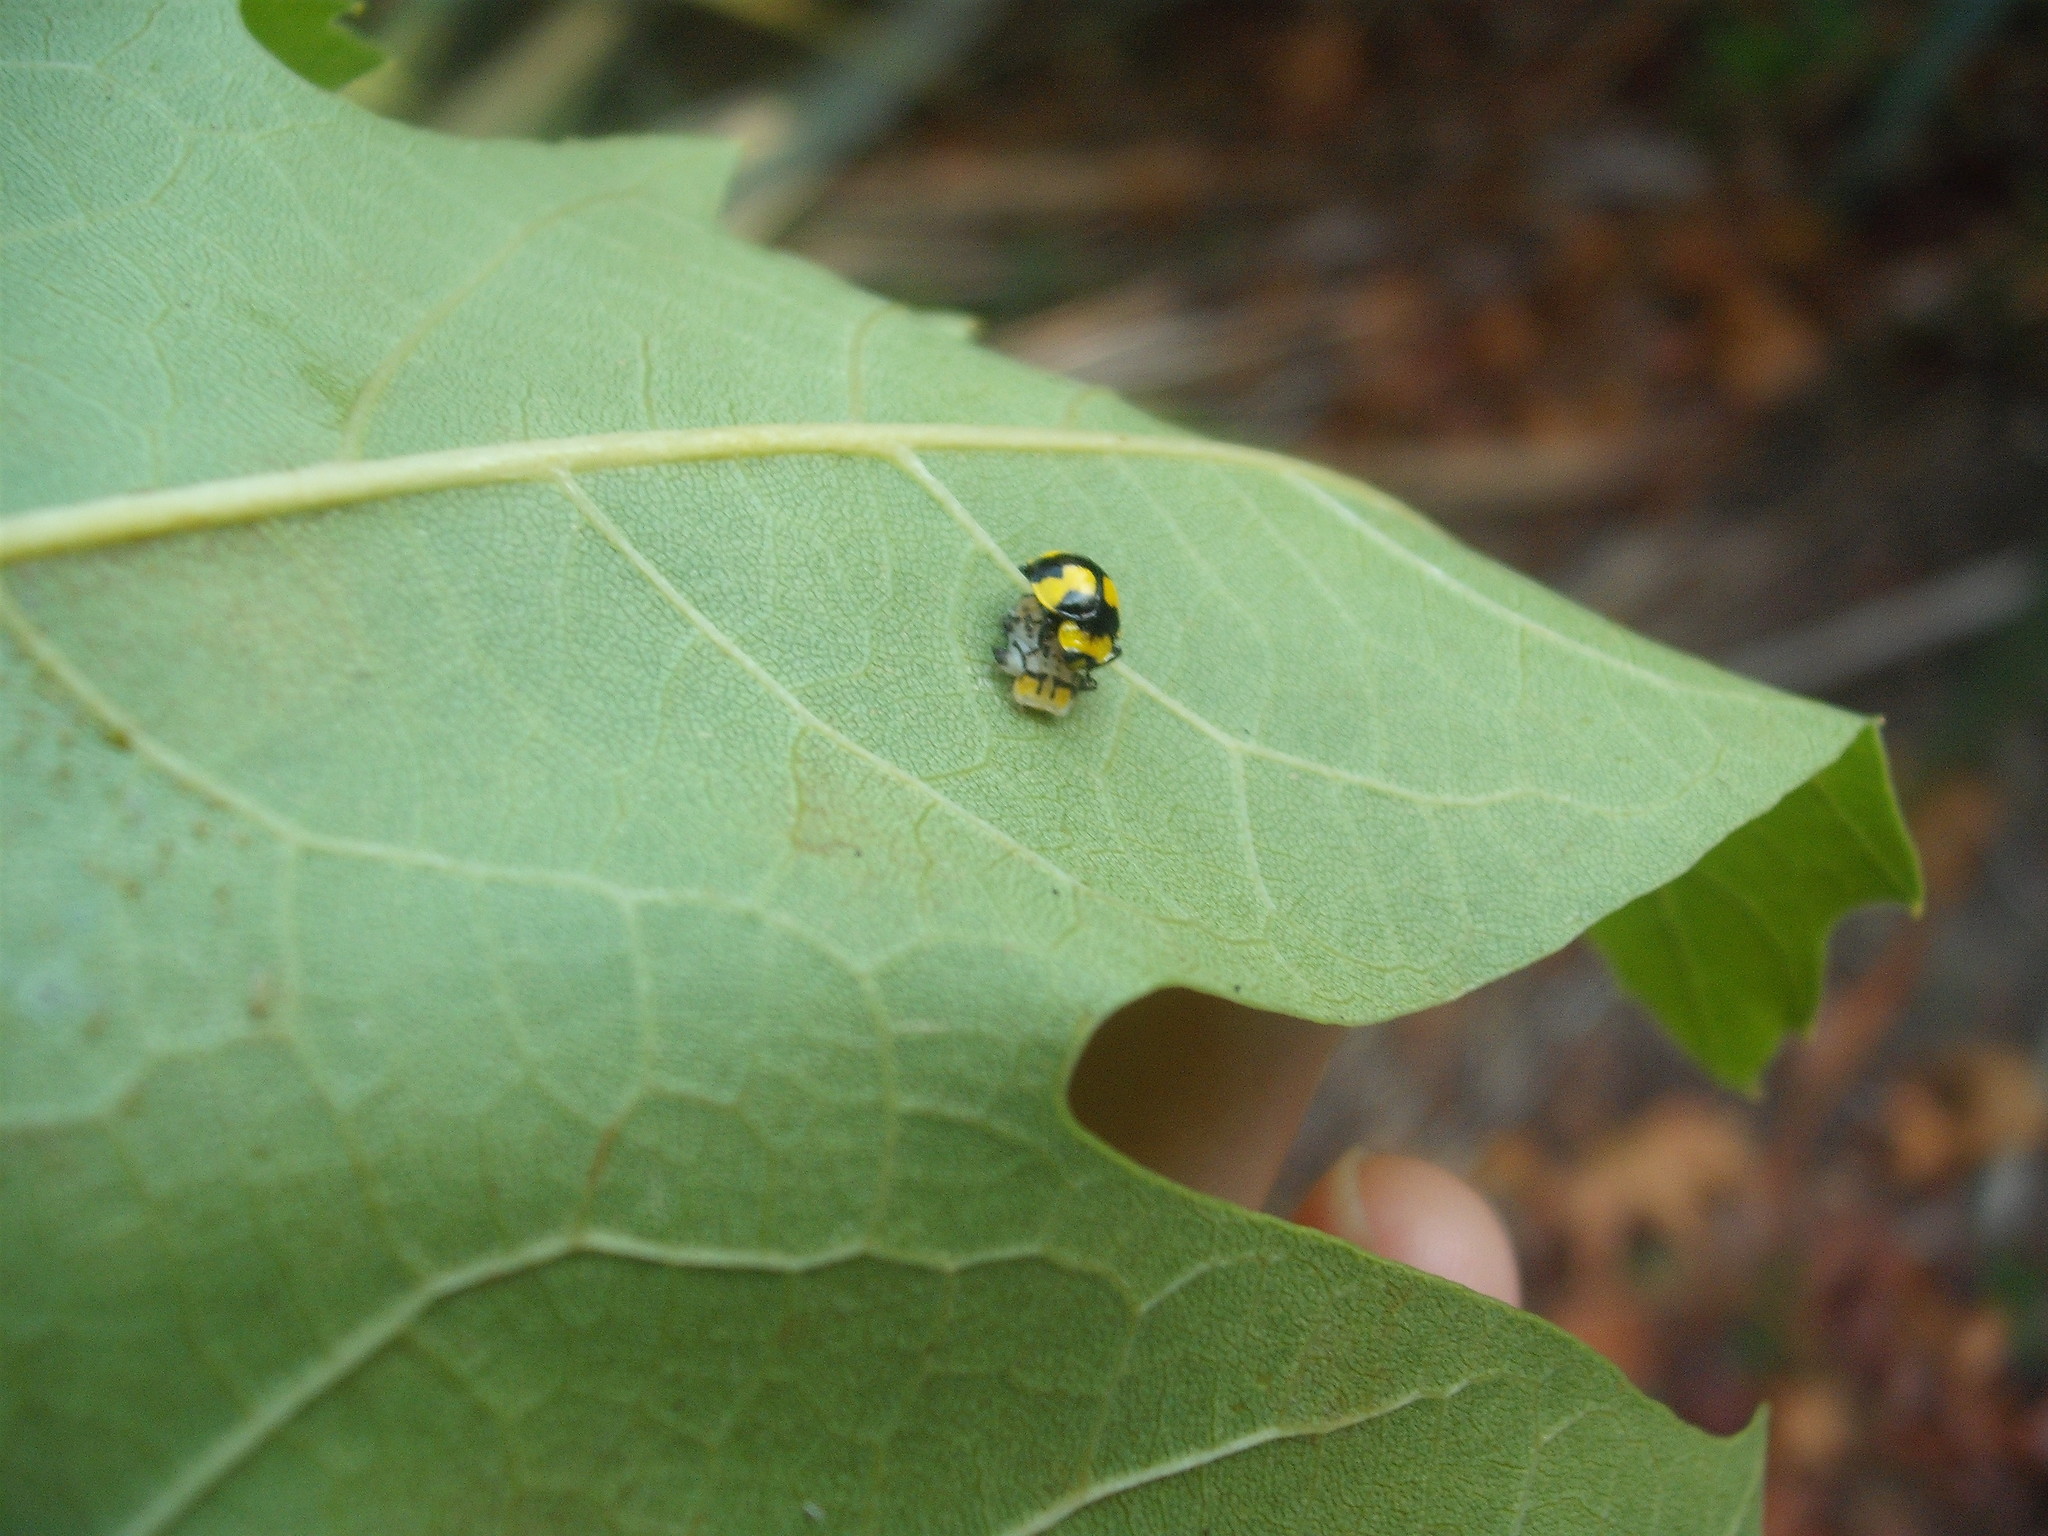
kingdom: Animalia
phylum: Arthropoda
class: Insecta
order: Coleoptera
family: Coccinellidae
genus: Illeis
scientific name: Illeis galbula
